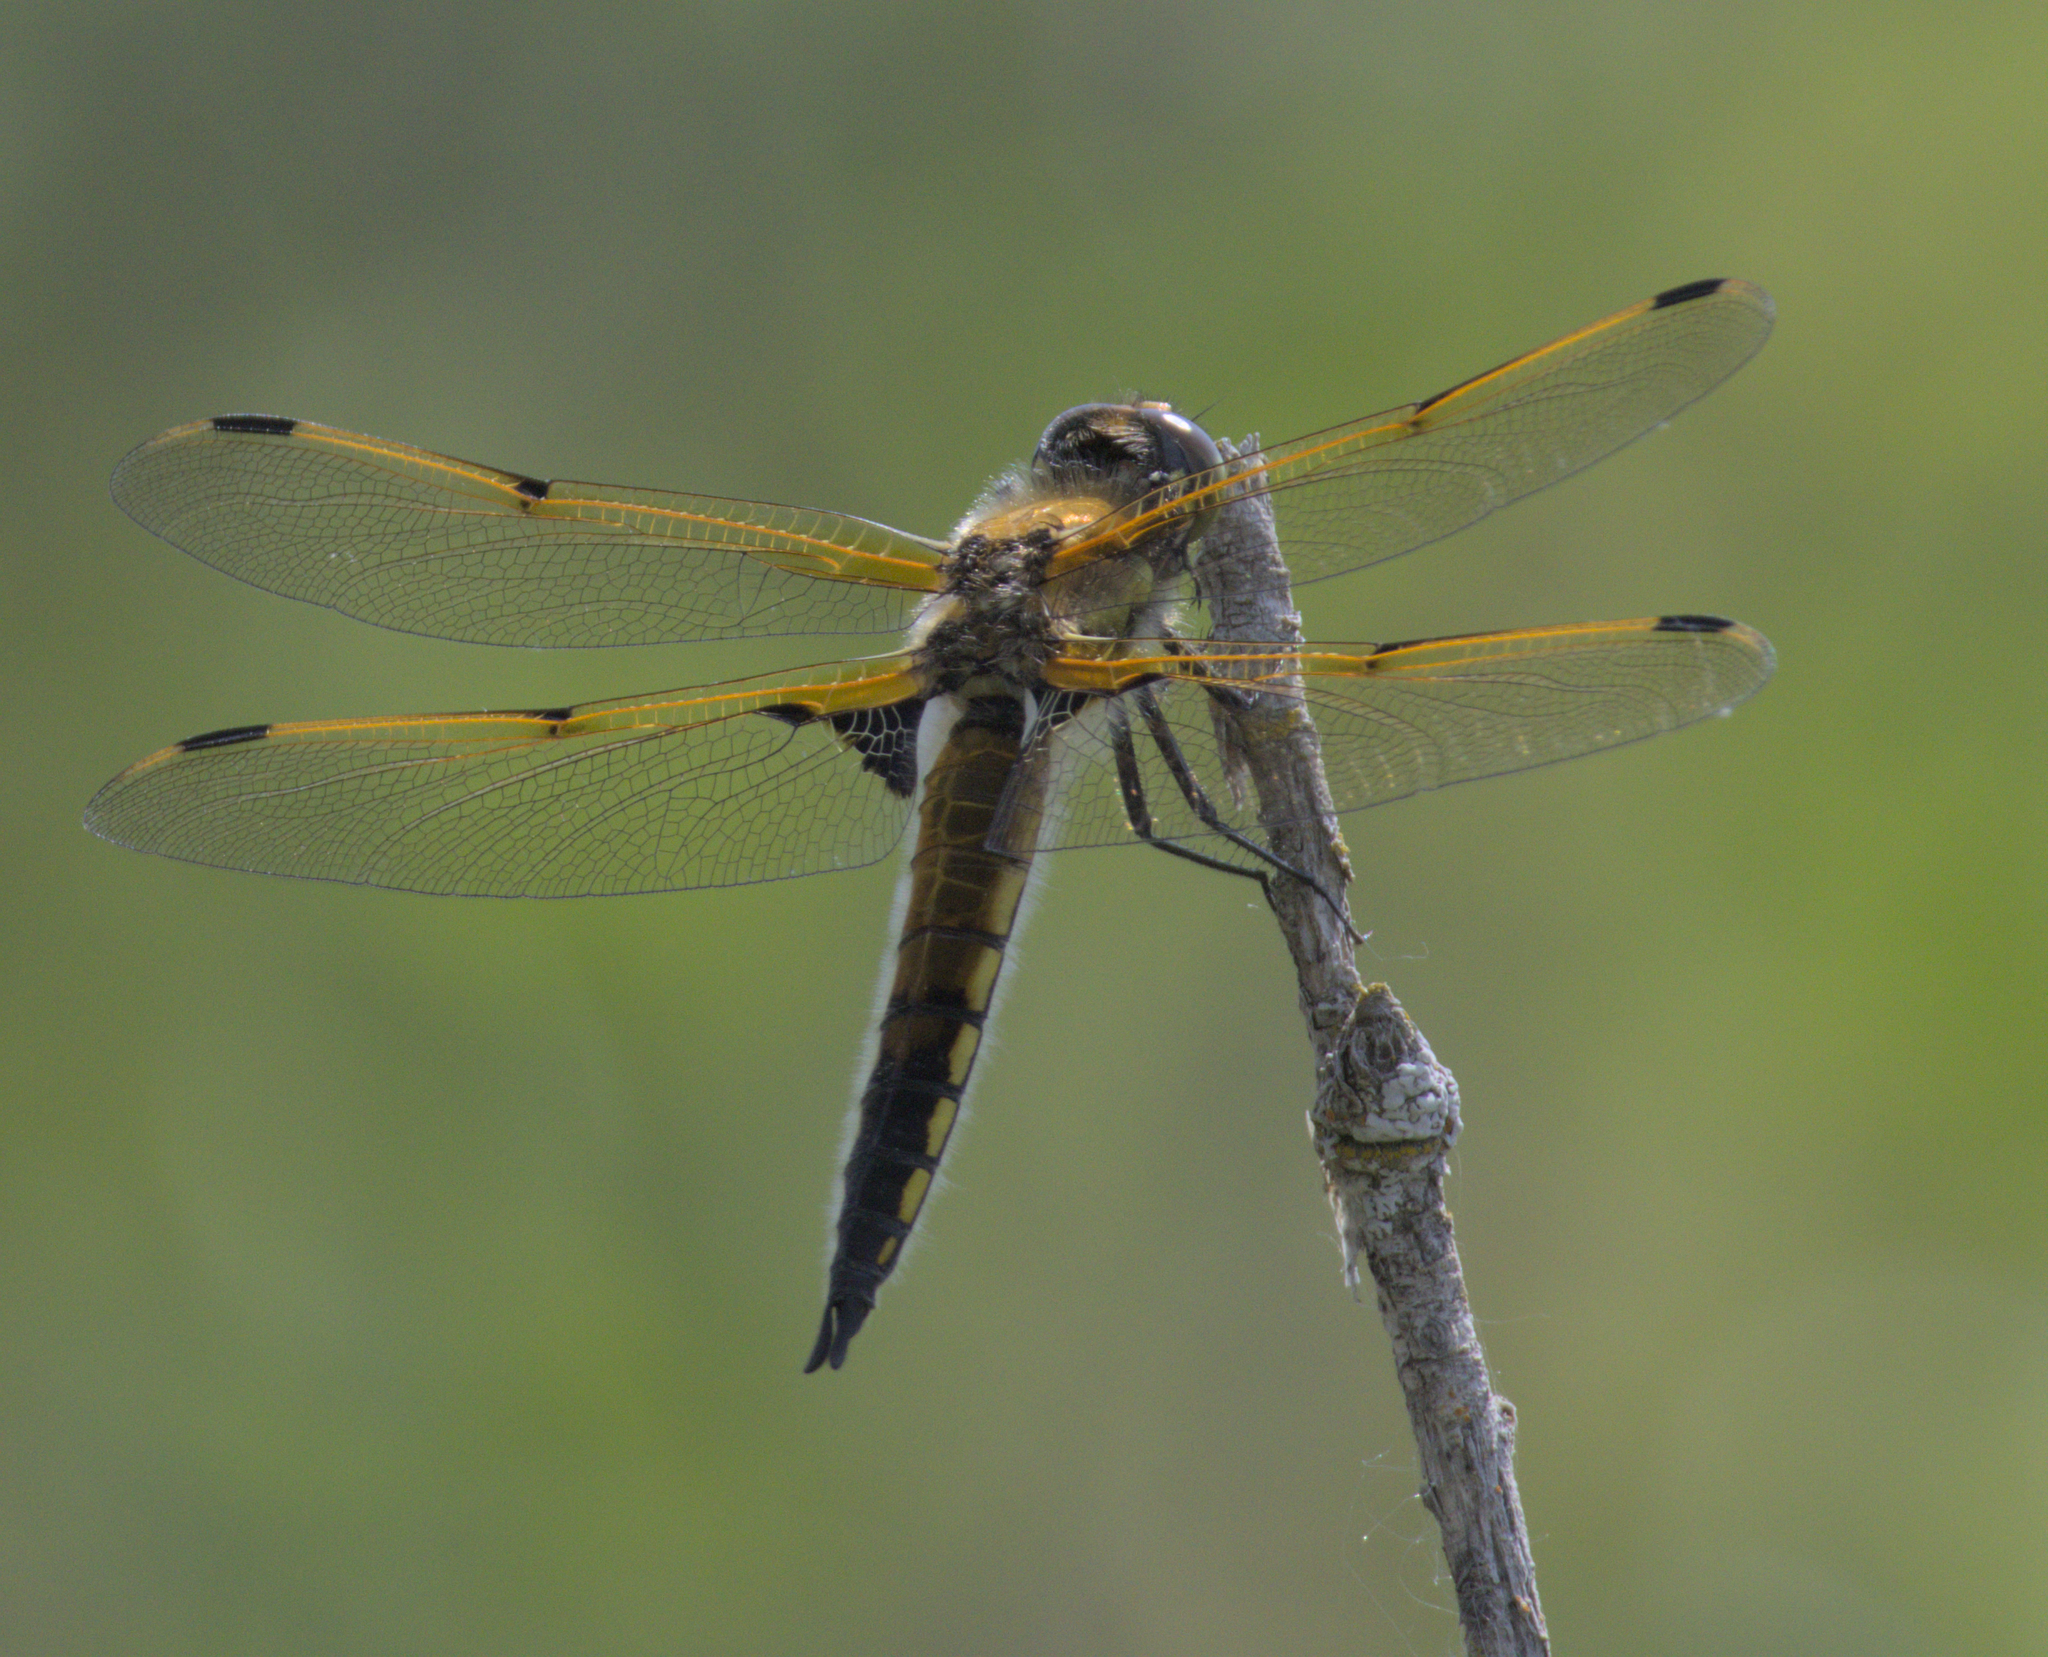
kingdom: Animalia
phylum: Arthropoda
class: Insecta
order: Odonata
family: Libellulidae
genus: Libellula
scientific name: Libellula quadrimaculata
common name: Four-spotted chaser
